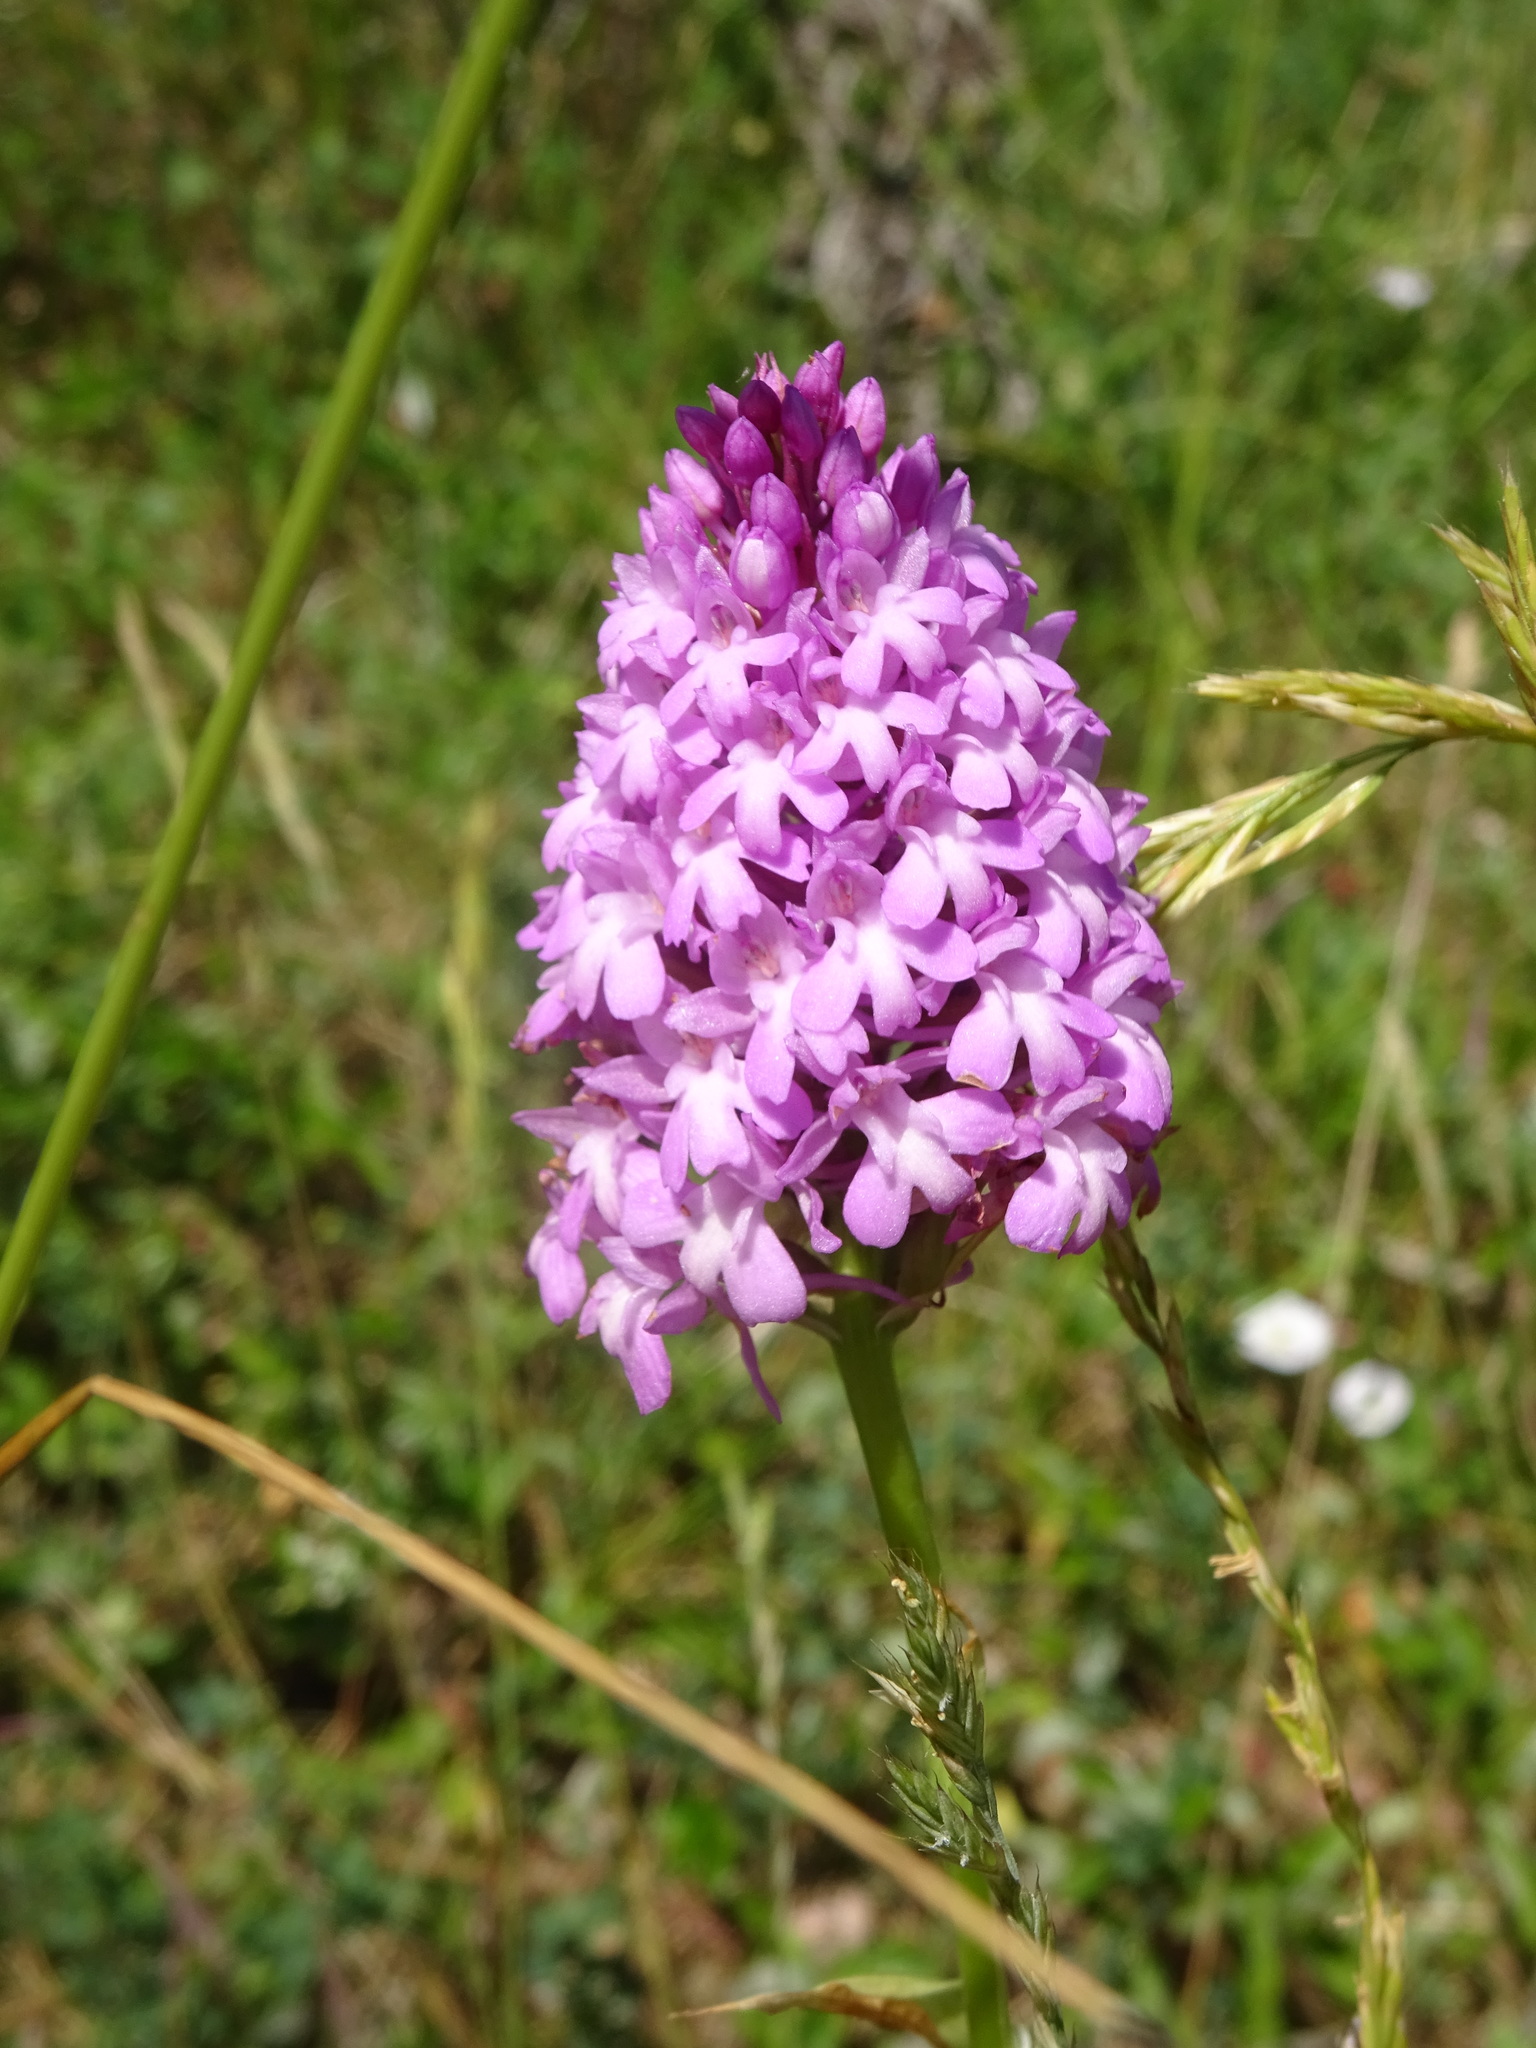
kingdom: Plantae
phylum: Tracheophyta
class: Liliopsida
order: Asparagales
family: Orchidaceae
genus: Anacamptis
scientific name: Anacamptis pyramidalis
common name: Pyramidal orchid
